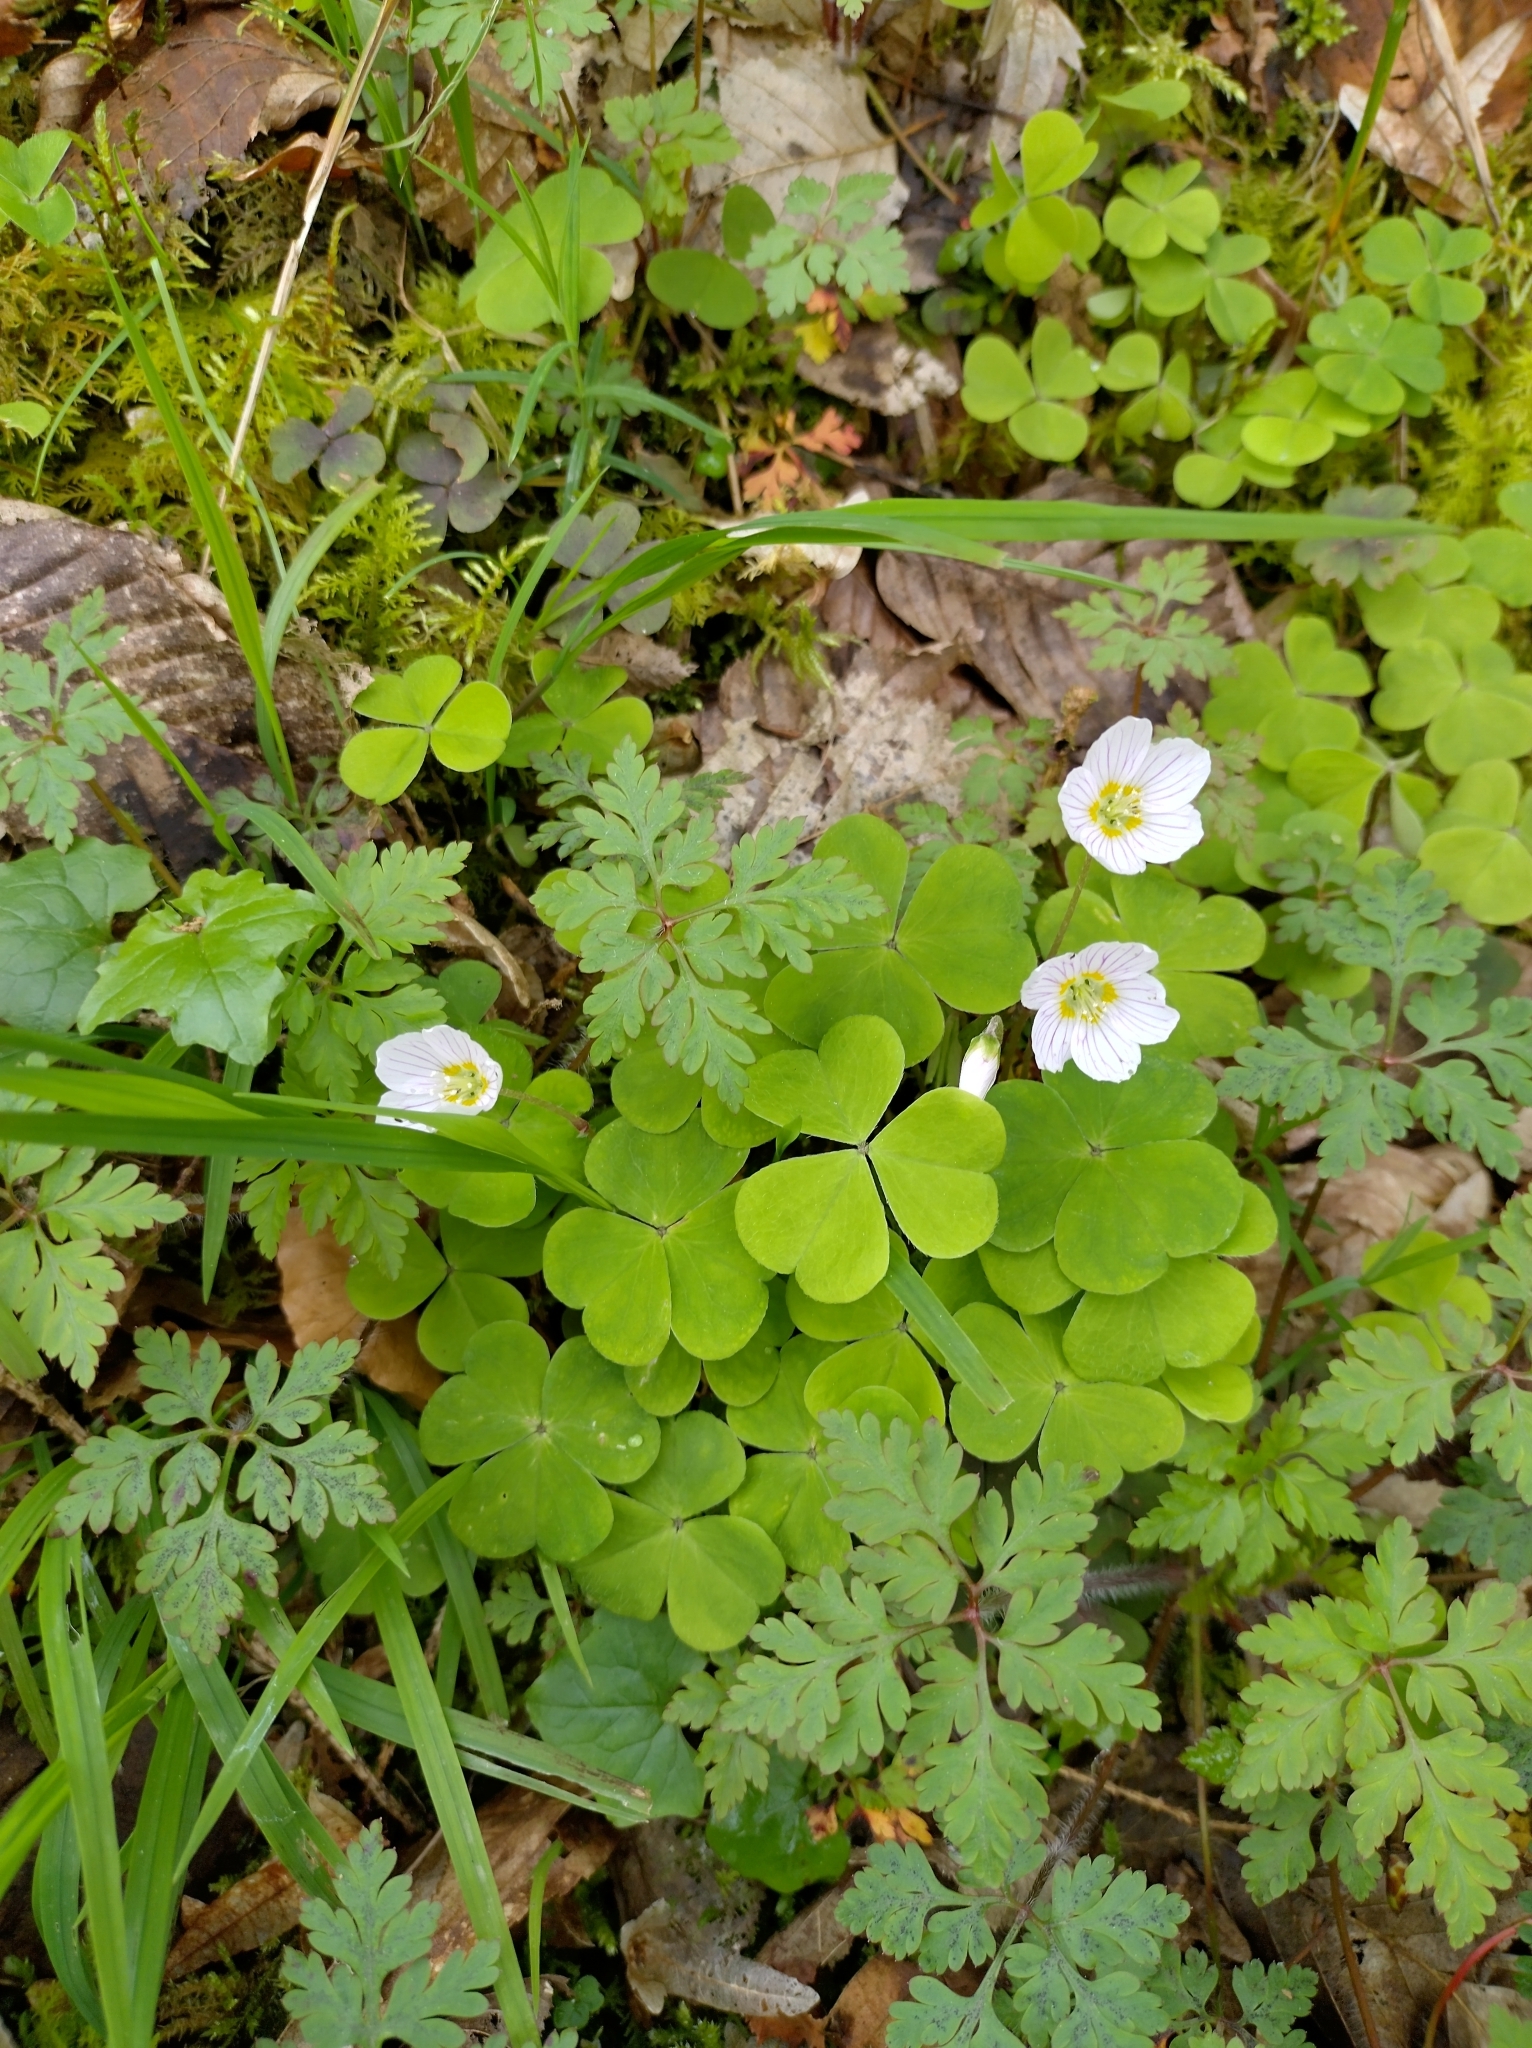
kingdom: Plantae
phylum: Tracheophyta
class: Magnoliopsida
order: Oxalidales
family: Oxalidaceae
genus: Oxalis
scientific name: Oxalis acetosella
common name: Wood-sorrel
